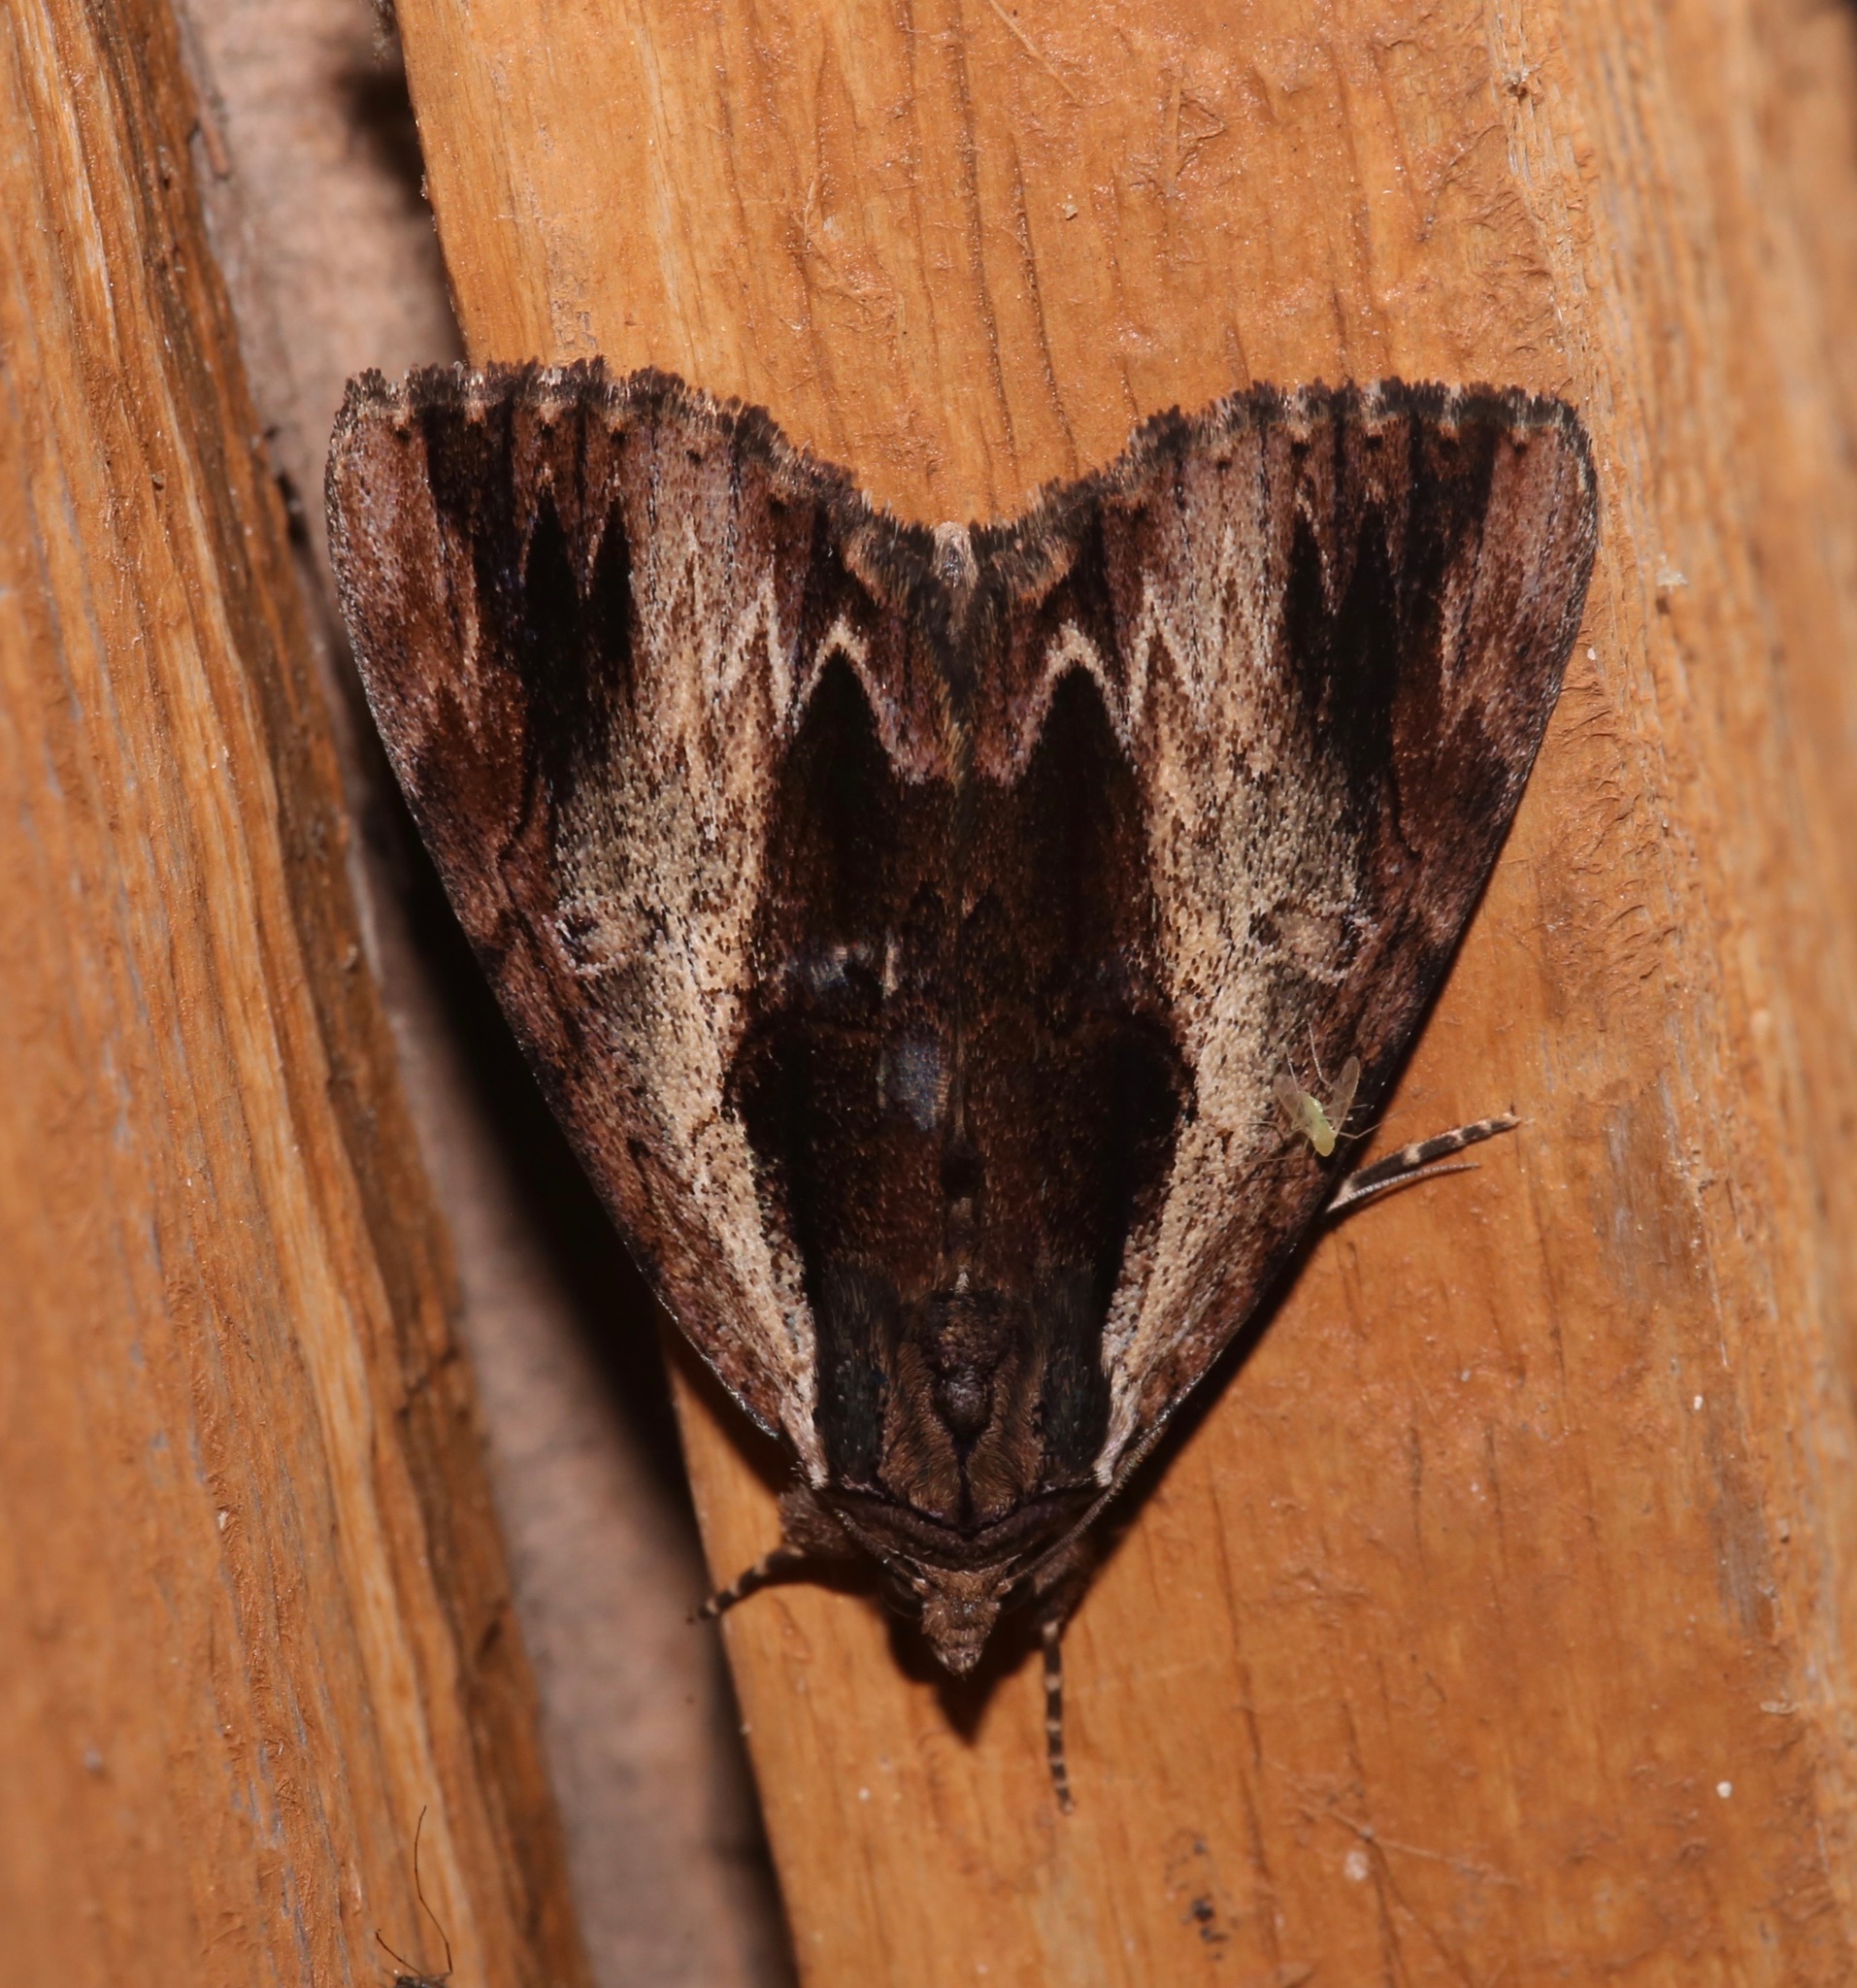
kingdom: Animalia
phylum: Arthropoda
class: Insecta
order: Lepidoptera
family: Erebidae
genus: Catocala
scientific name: Catocala ultronia
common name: Ultronia underwing
